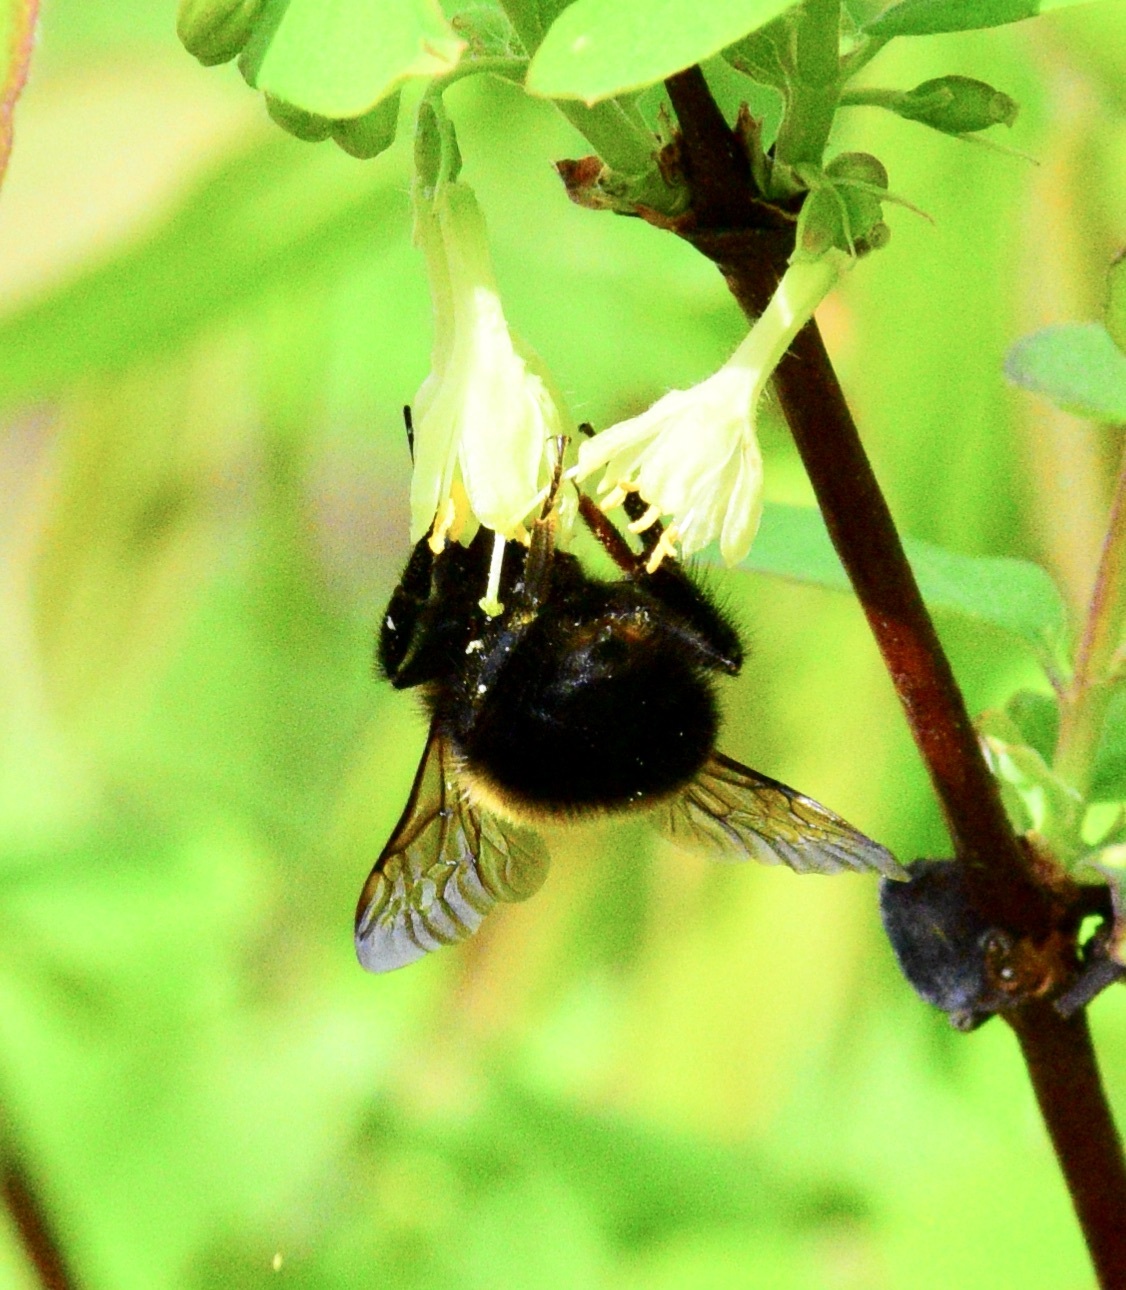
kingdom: Animalia
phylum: Arthropoda
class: Insecta
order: Hymenoptera
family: Apidae
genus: Bombus
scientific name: Bombus perplexus
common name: Confusing bumble bee
